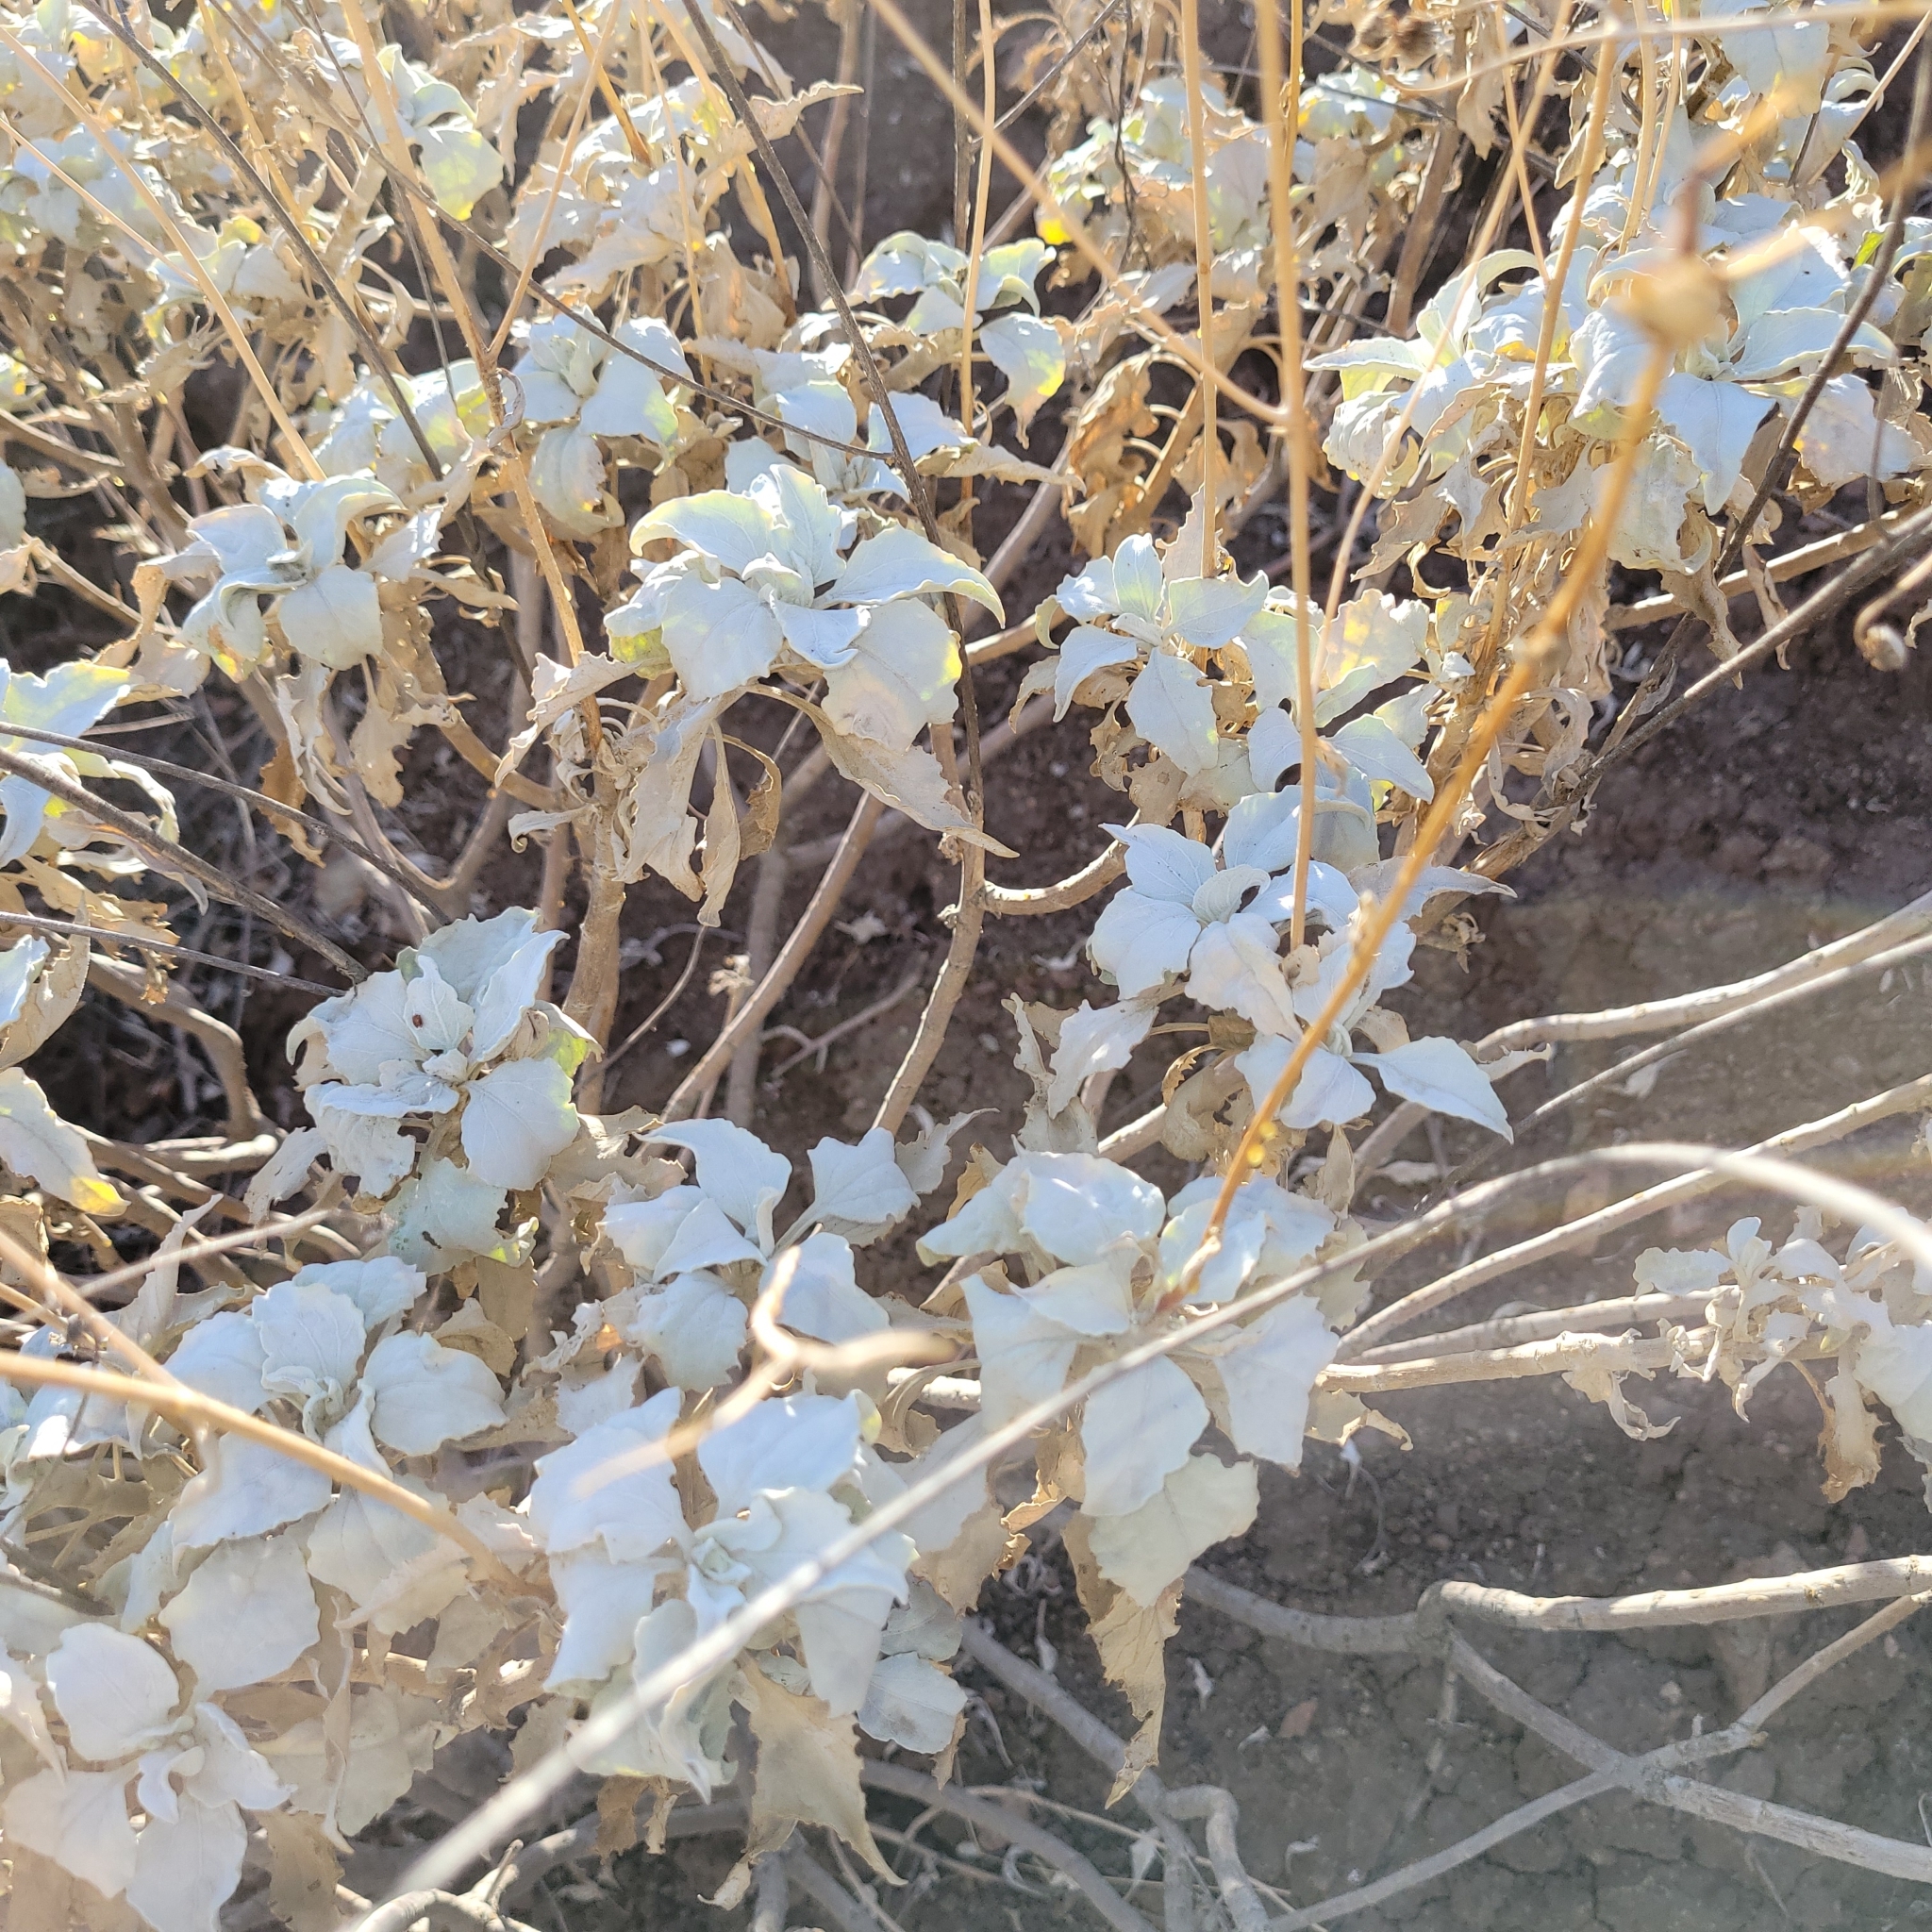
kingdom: Plantae
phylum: Tracheophyta
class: Magnoliopsida
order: Asterales
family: Asteraceae
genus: Encelia
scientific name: Encelia farinosa
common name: Brittlebush
